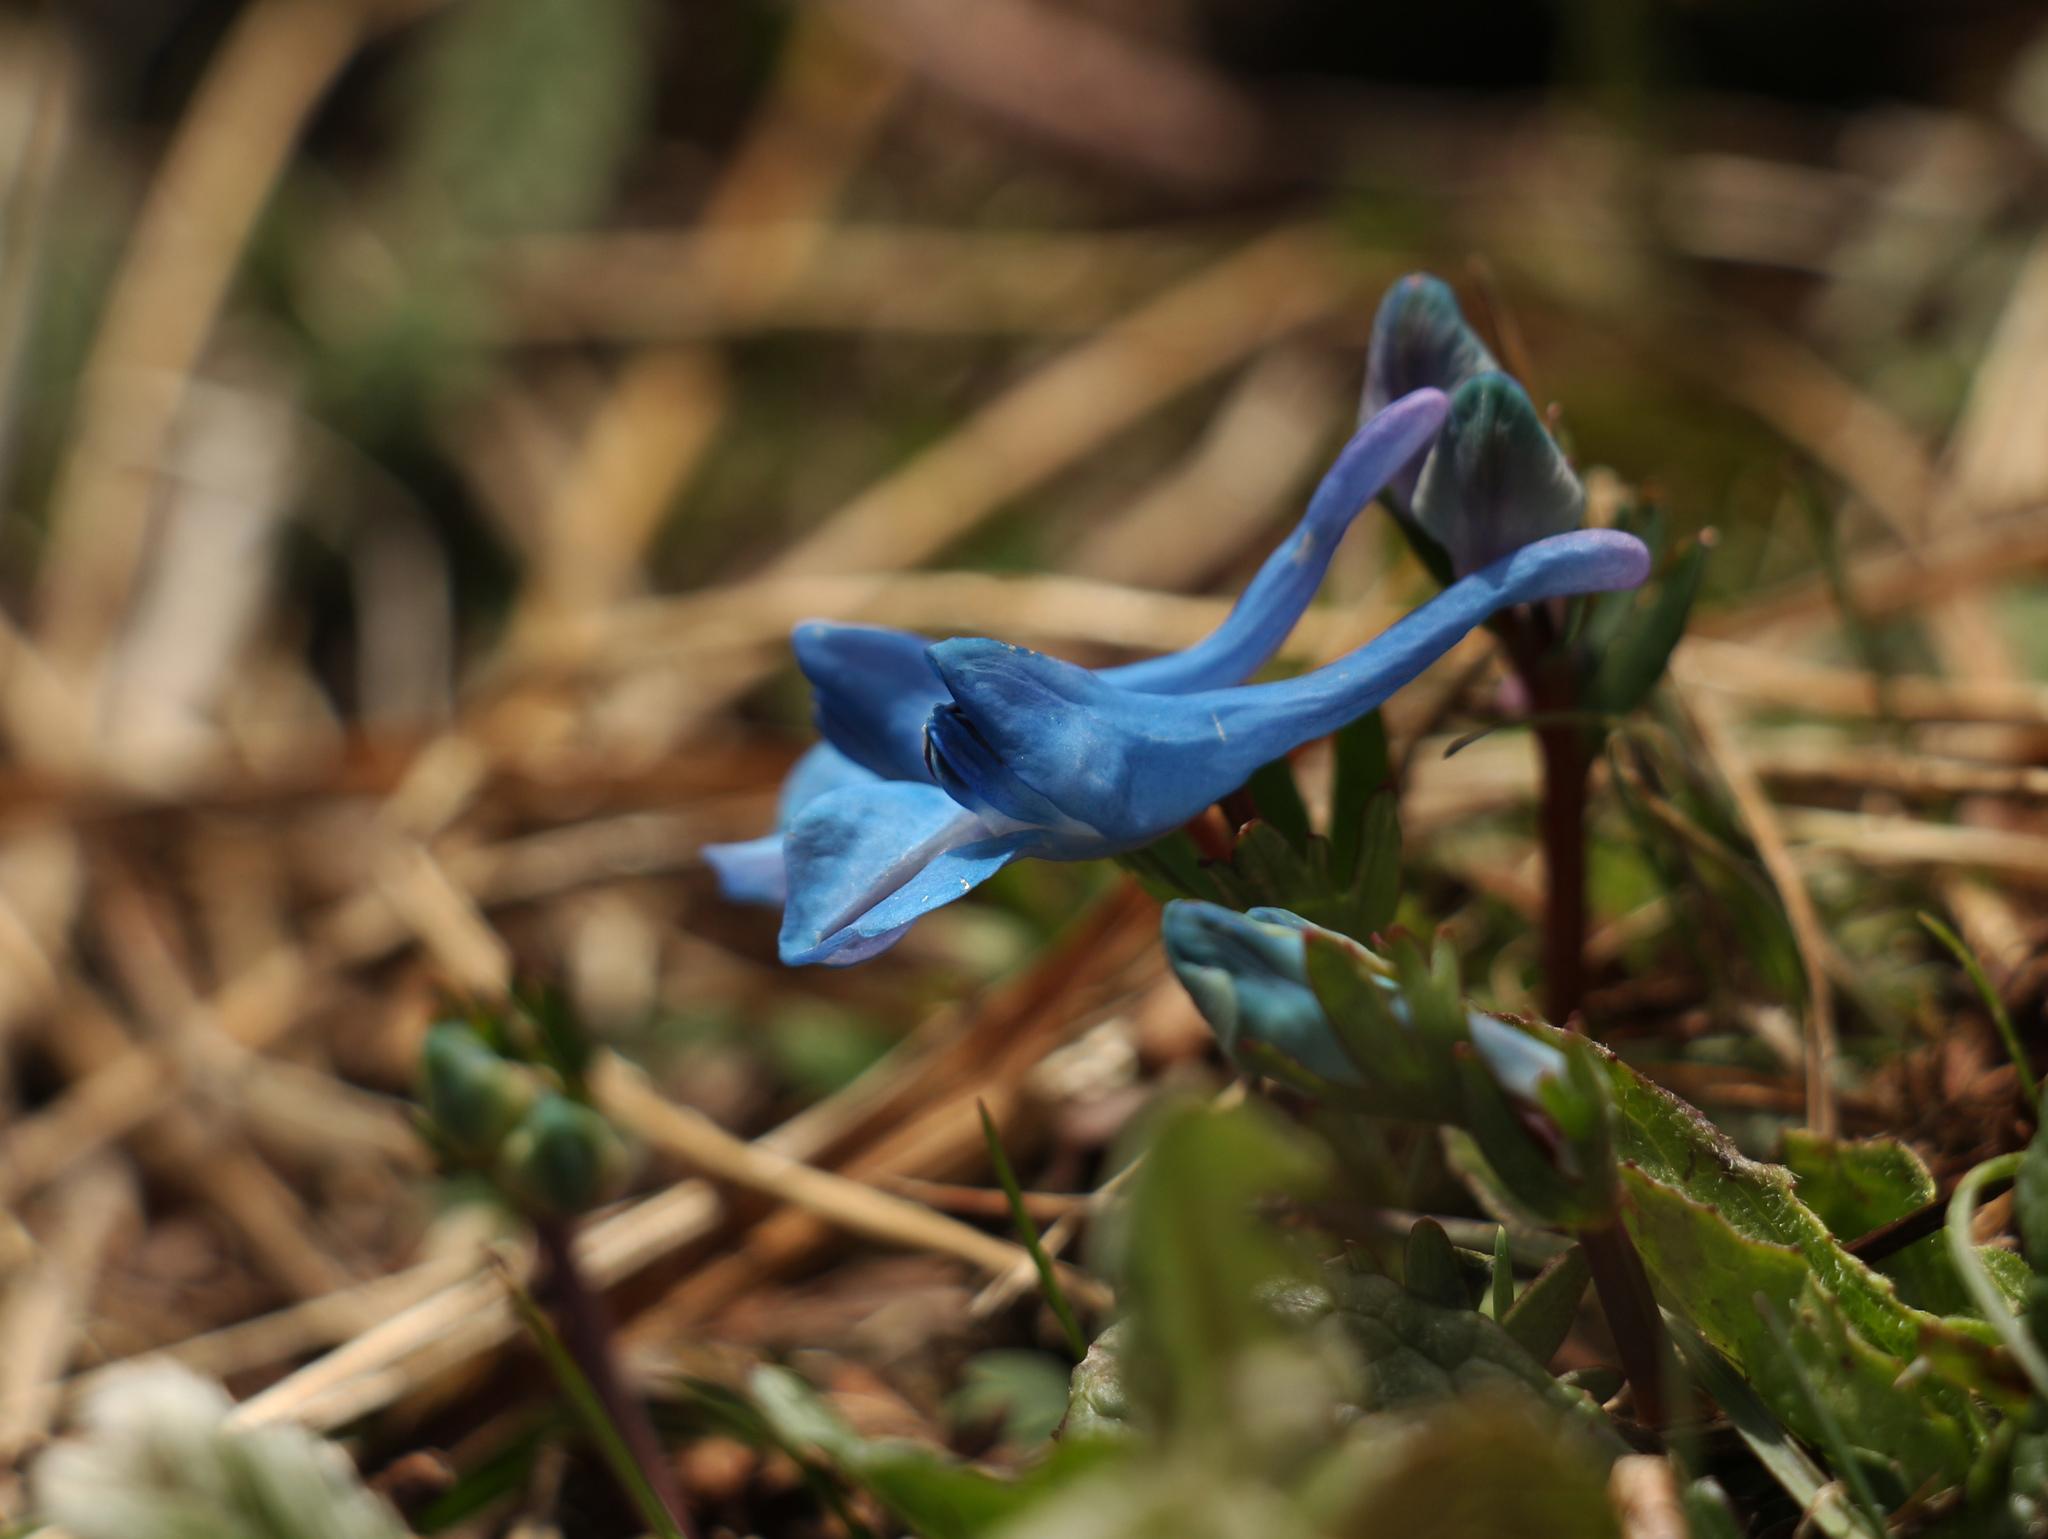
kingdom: Plantae
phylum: Tracheophyta
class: Magnoliopsida
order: Ranunculales
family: Papaveraceae
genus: Corydalis
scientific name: Corydalis cashmeriana
